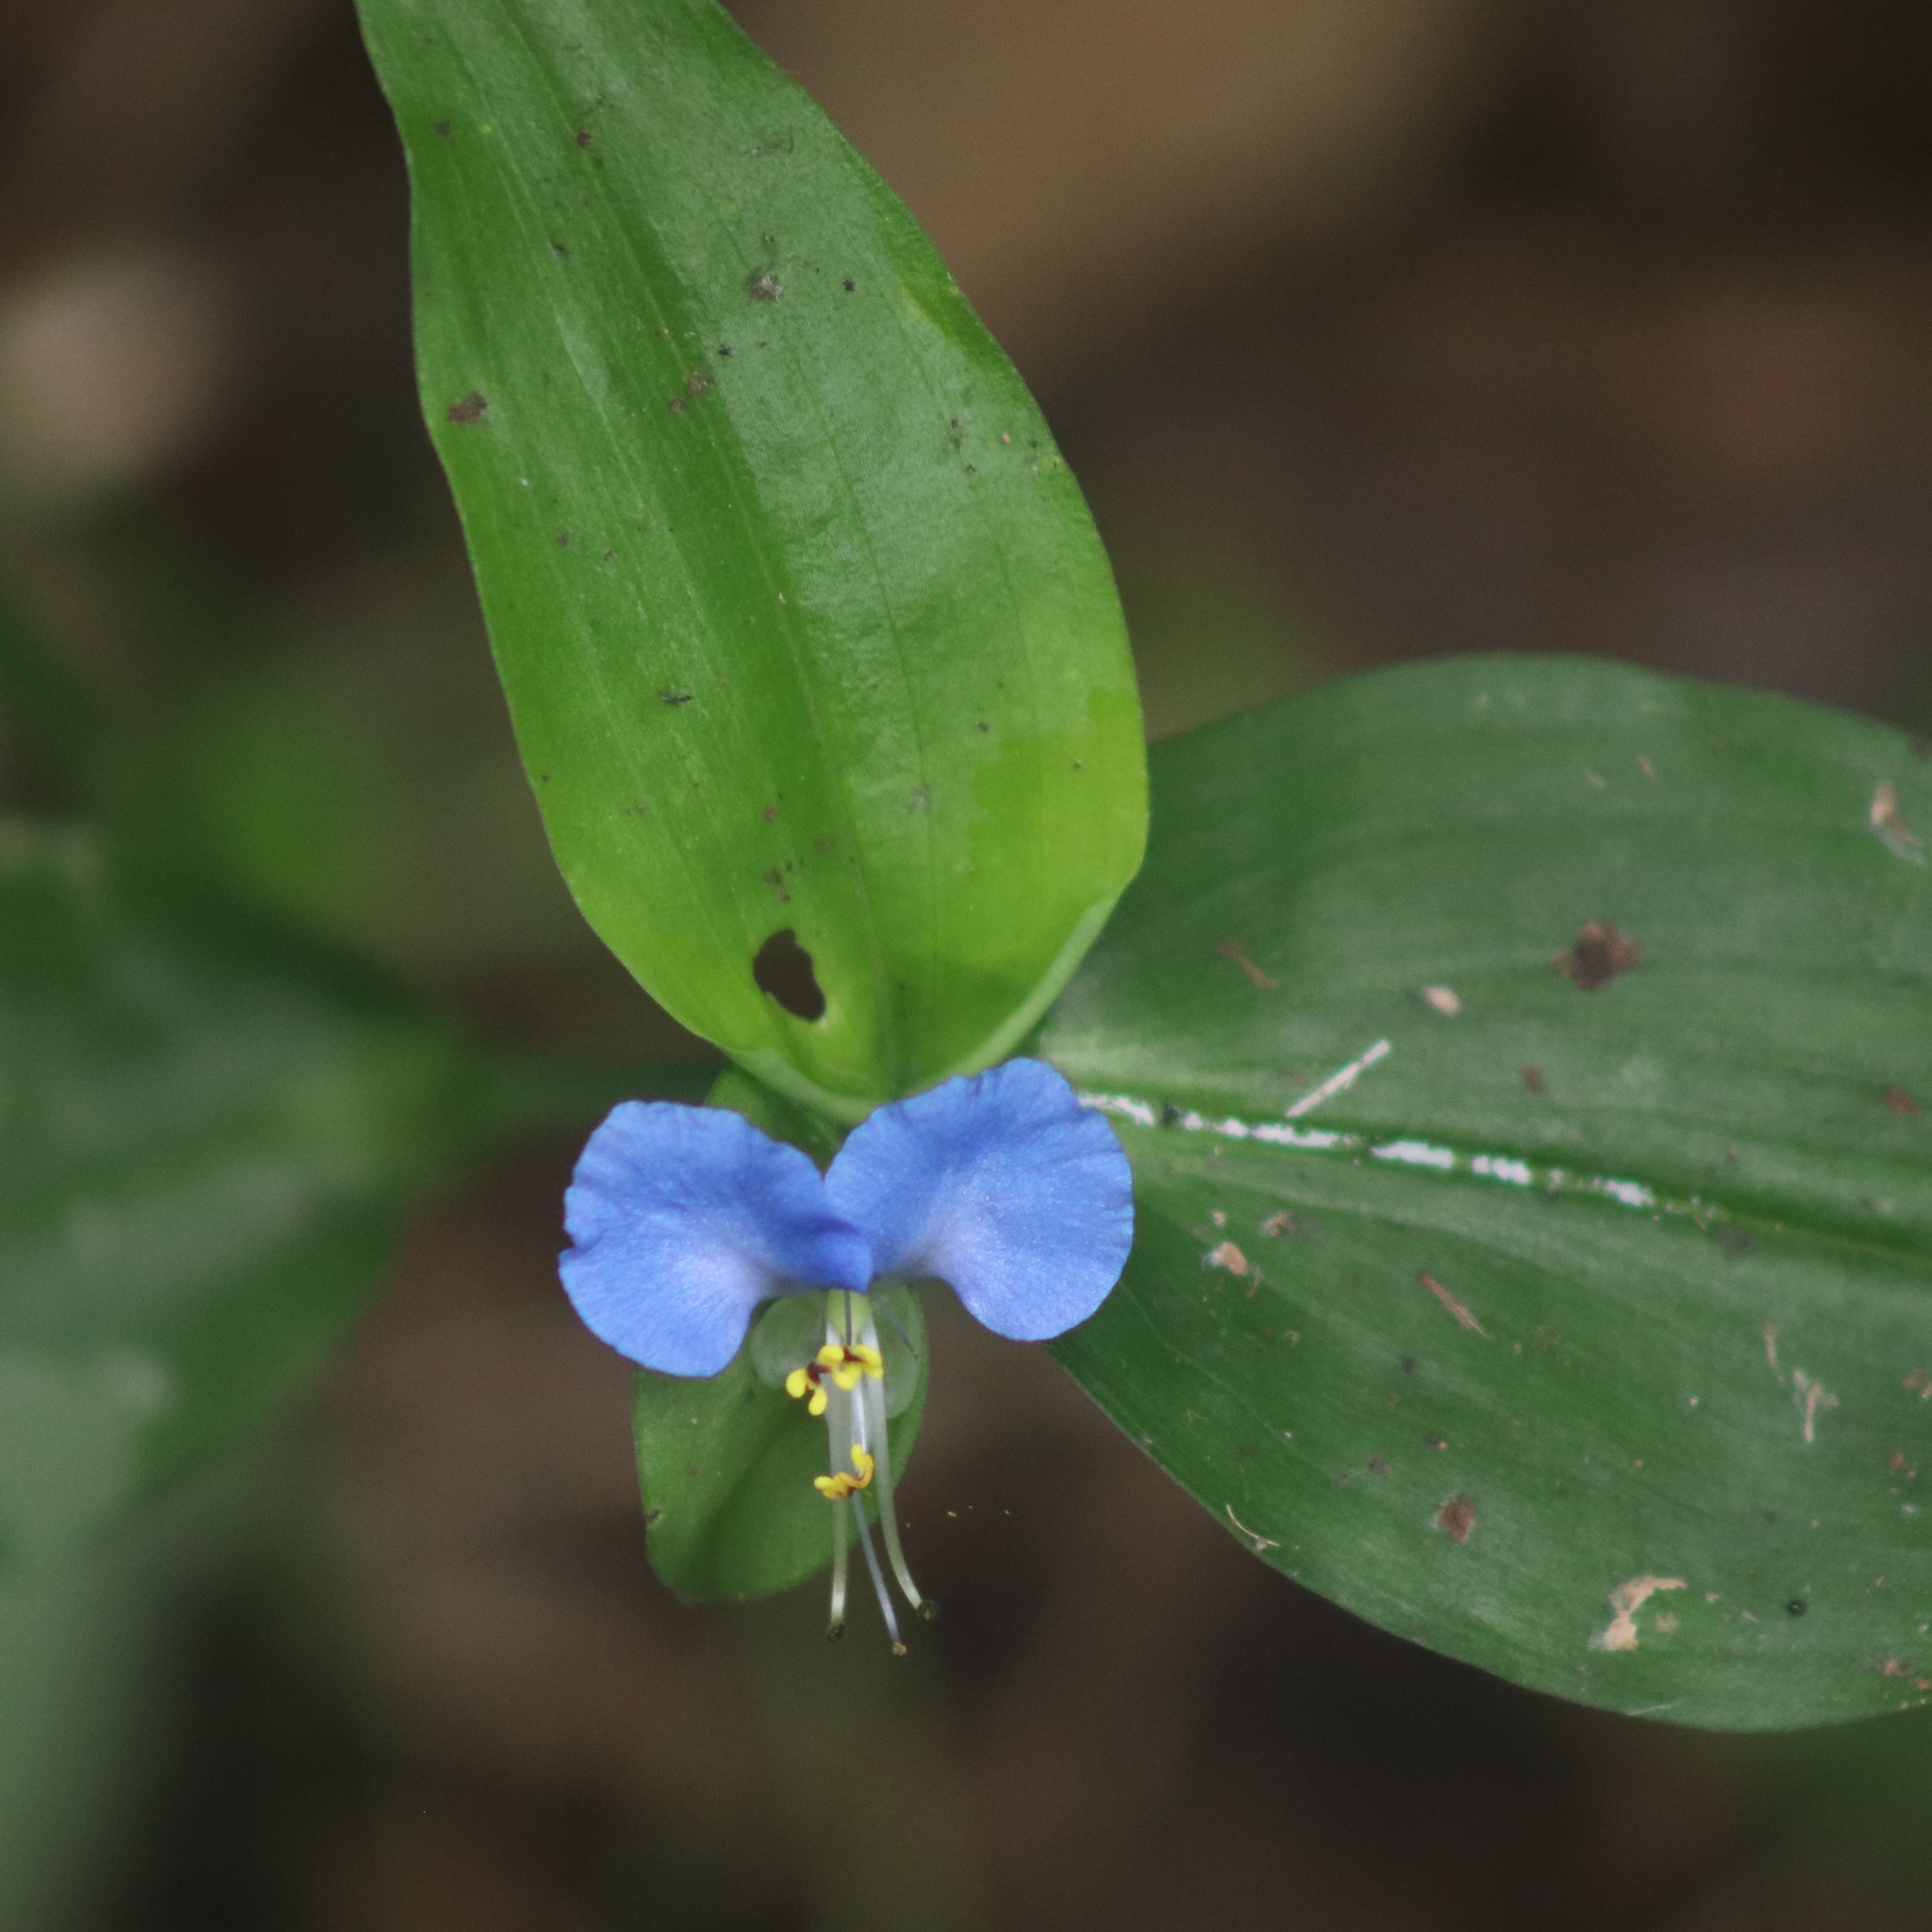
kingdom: Plantae
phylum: Tracheophyta
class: Liliopsida
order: Commelinales
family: Commelinaceae
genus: Commelina
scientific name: Commelina communis
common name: Asiatic dayflower
